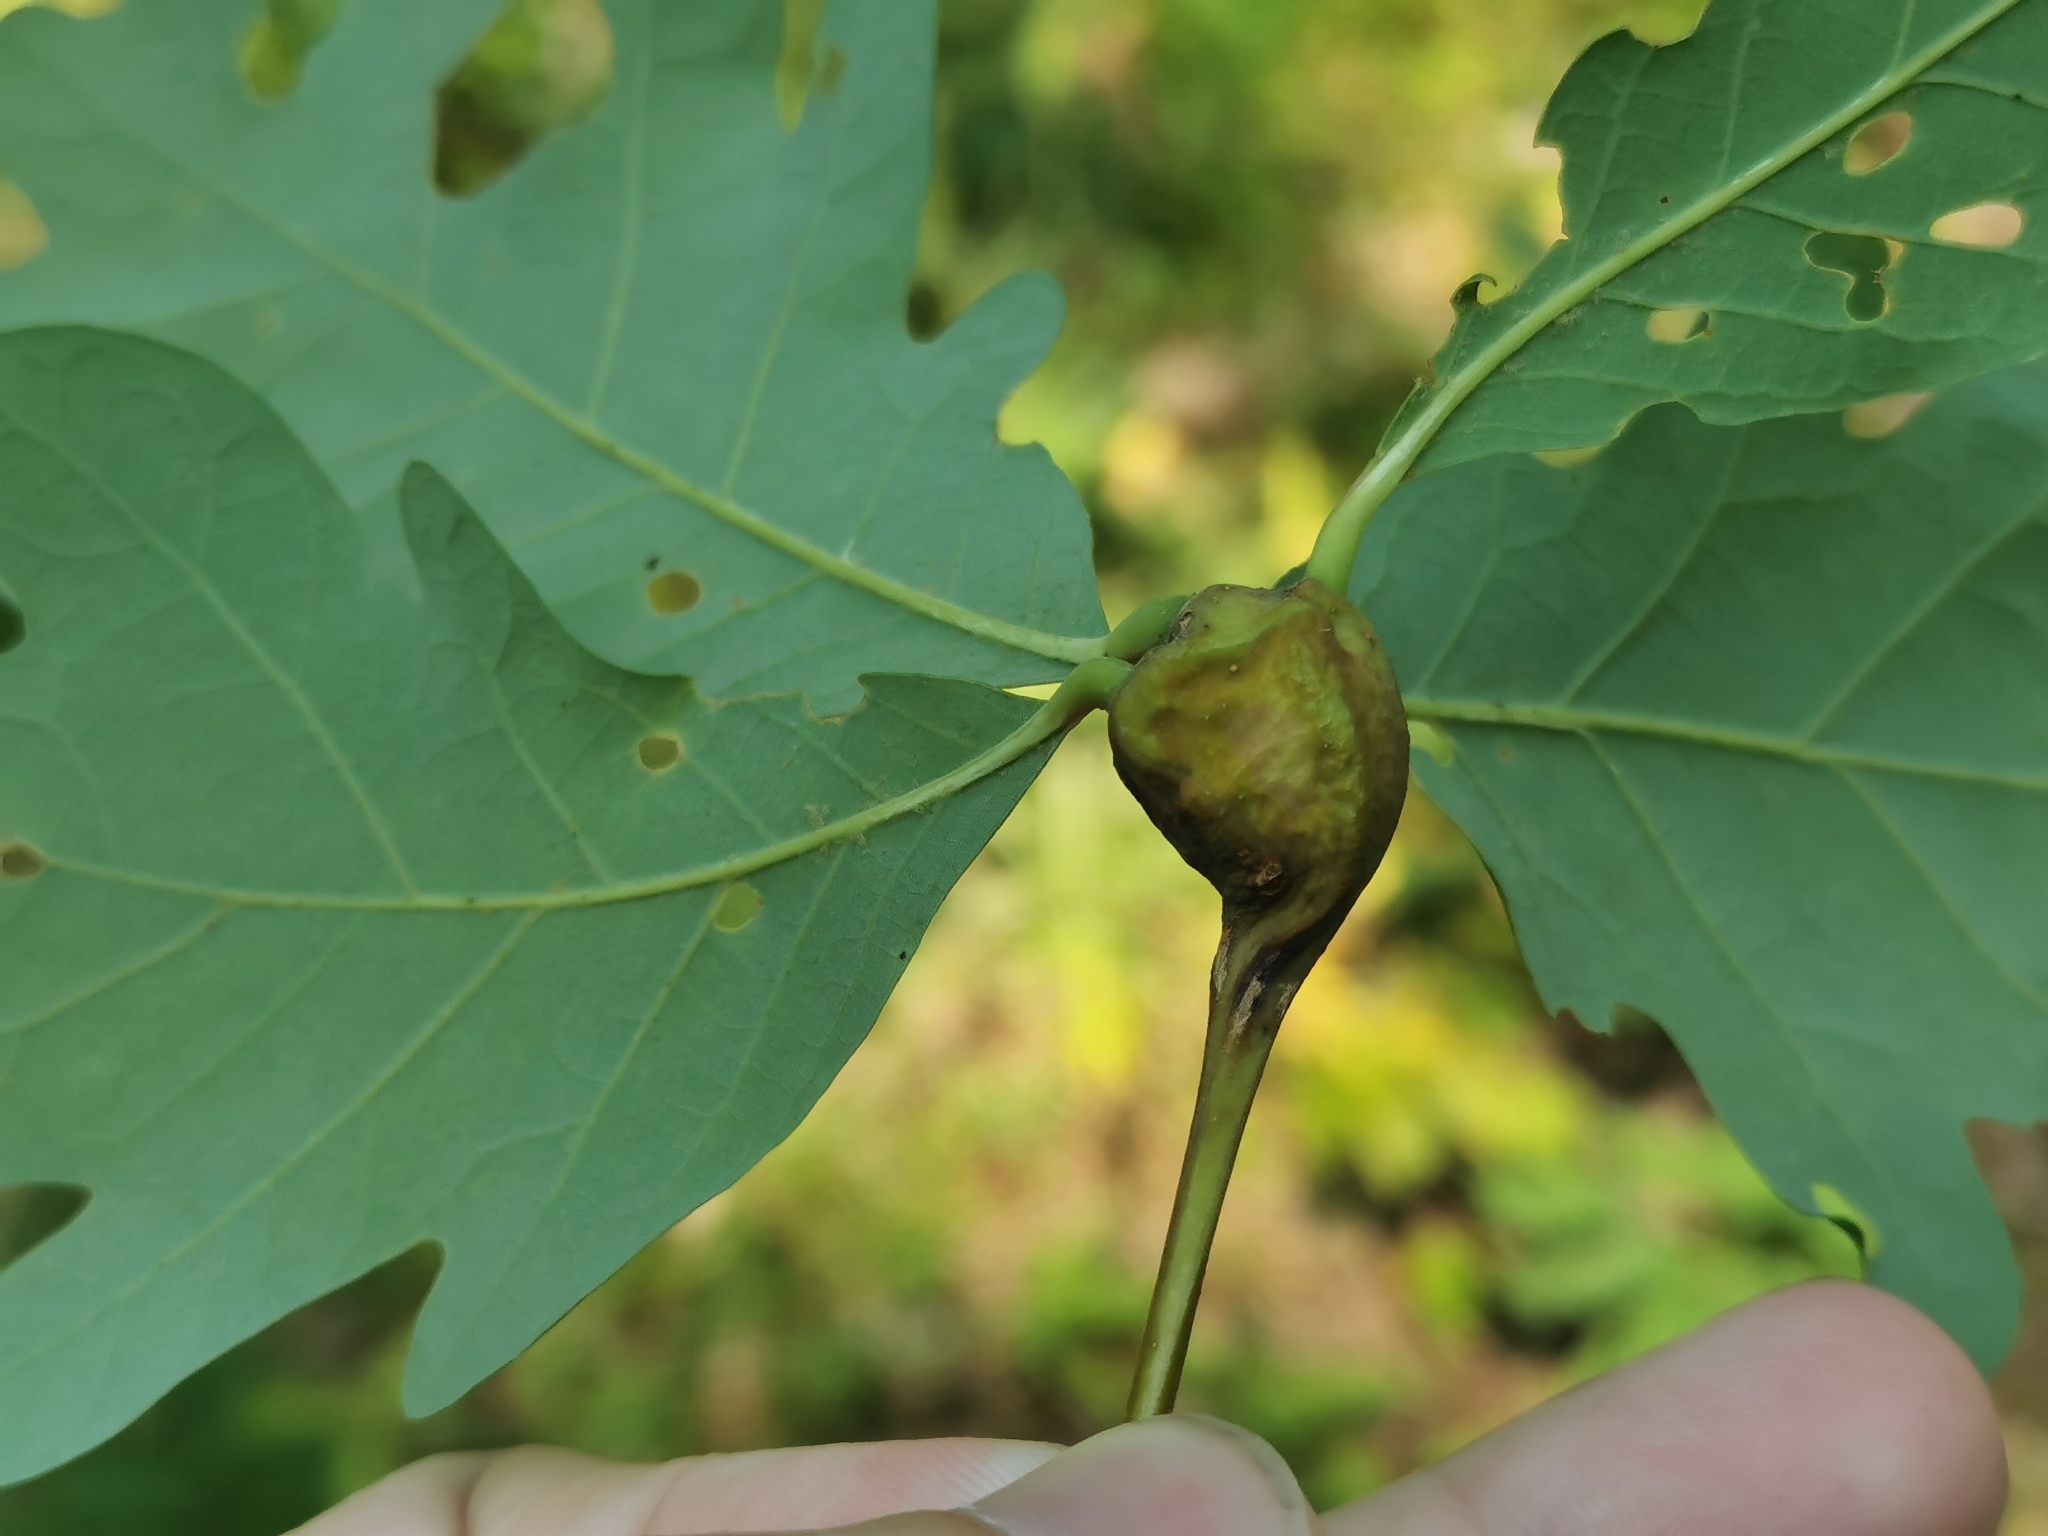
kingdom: Animalia
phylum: Arthropoda
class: Insecta
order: Hymenoptera
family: Cynipidae
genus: Callirhytis
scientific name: Callirhytis clavula
